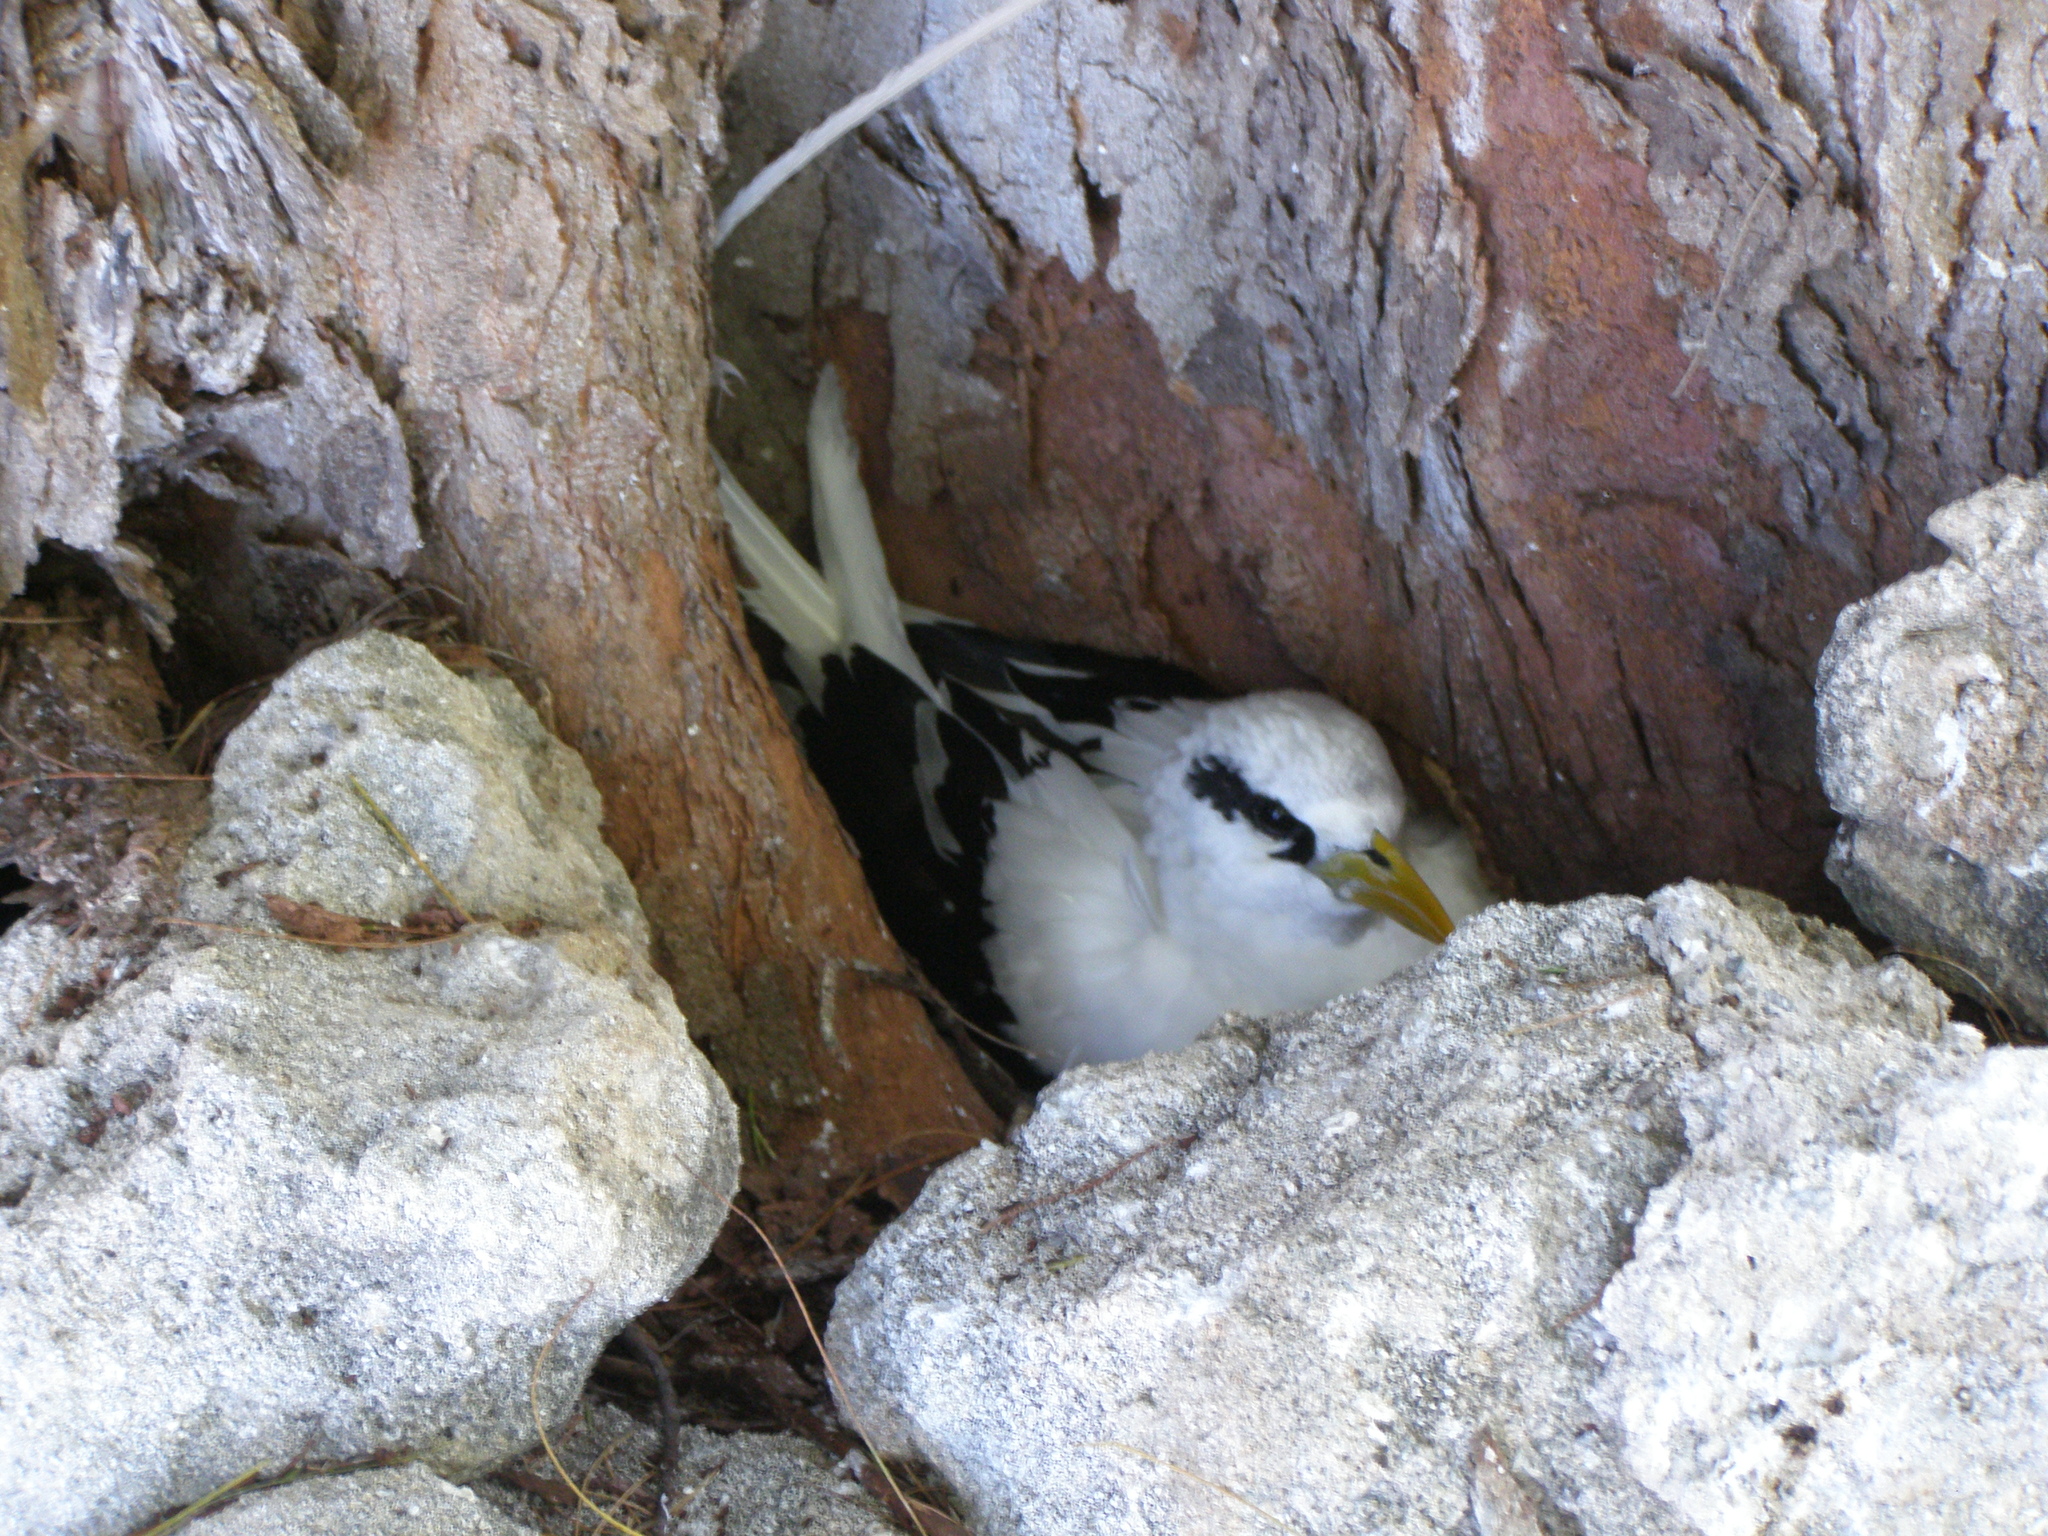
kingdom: Animalia
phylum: Chordata
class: Aves
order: Phaethontiformes
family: Phaethontidae
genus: Phaethon
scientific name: Phaethon lepturus
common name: White-tailed tropicbird
